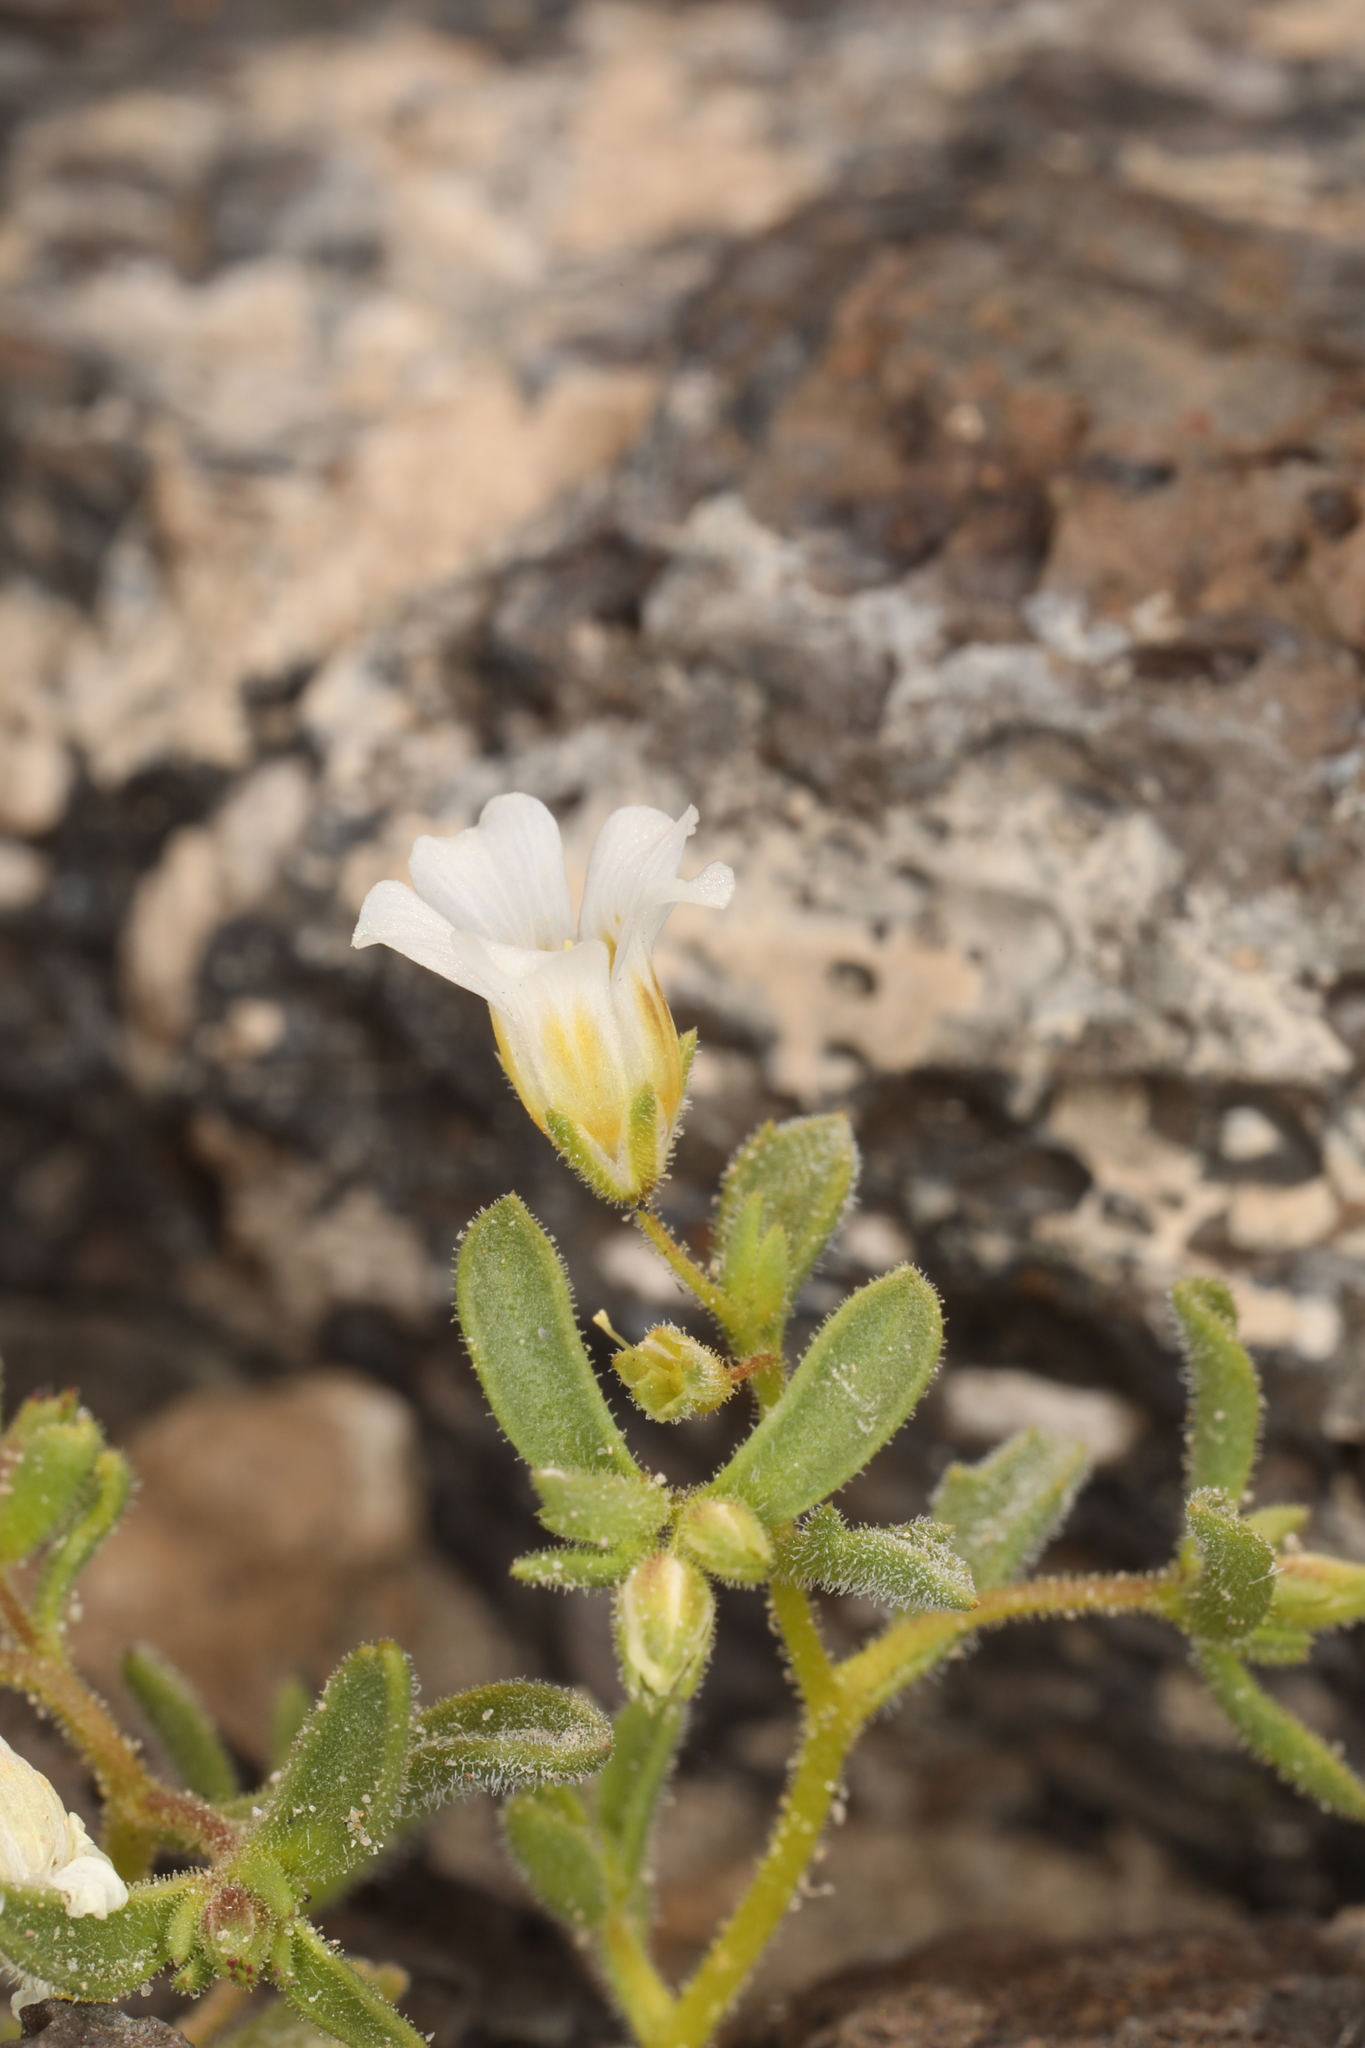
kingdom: Plantae
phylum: Tracheophyta
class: Magnoliopsida
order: Ericales
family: Polemoniaceae
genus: Linanthus
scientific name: Linanthus campanulatus
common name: Bellshape gilia
